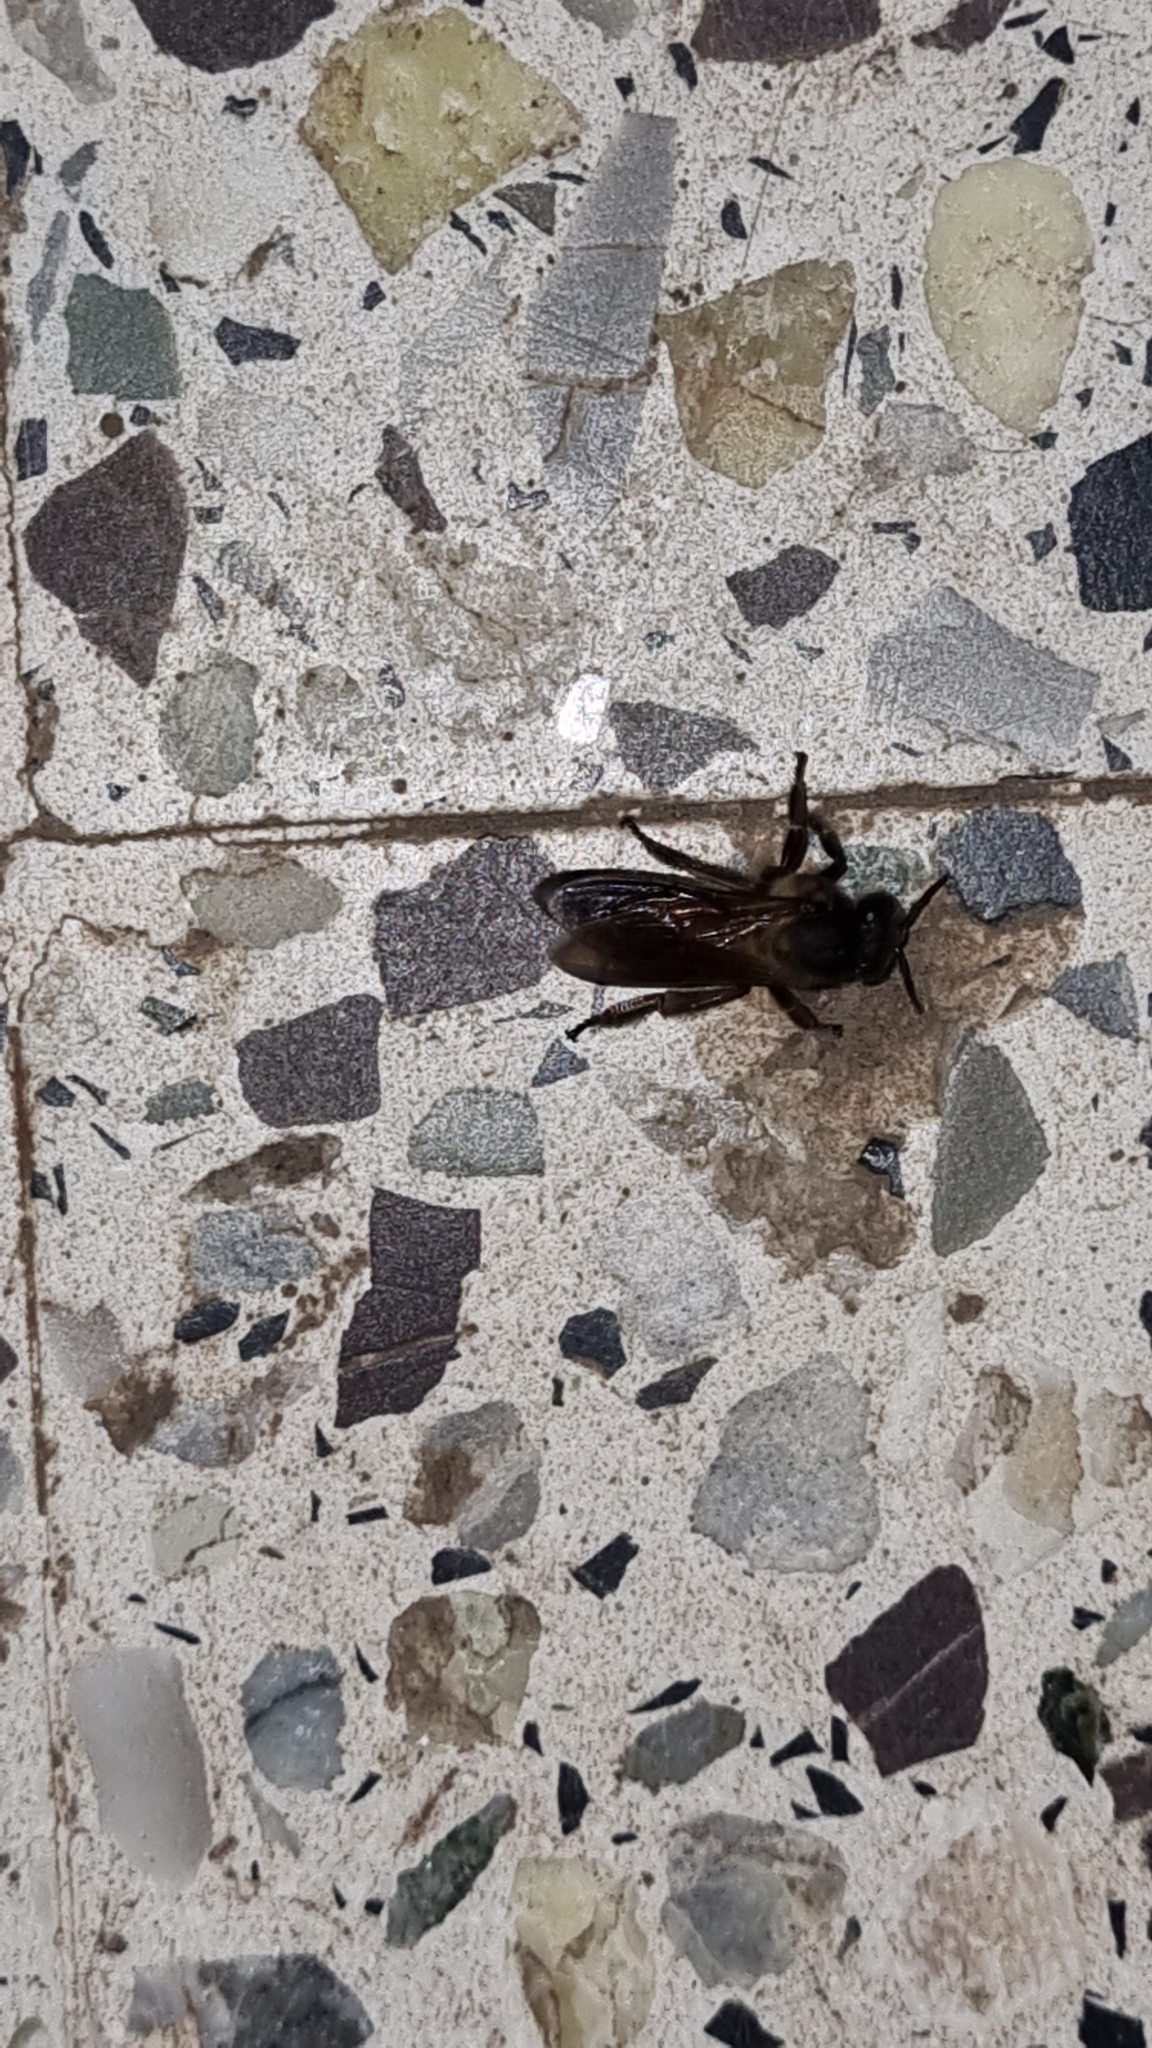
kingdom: Animalia
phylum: Arthropoda
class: Insecta
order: Hymenoptera
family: Apidae
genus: Apis
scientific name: Apis dorsata
